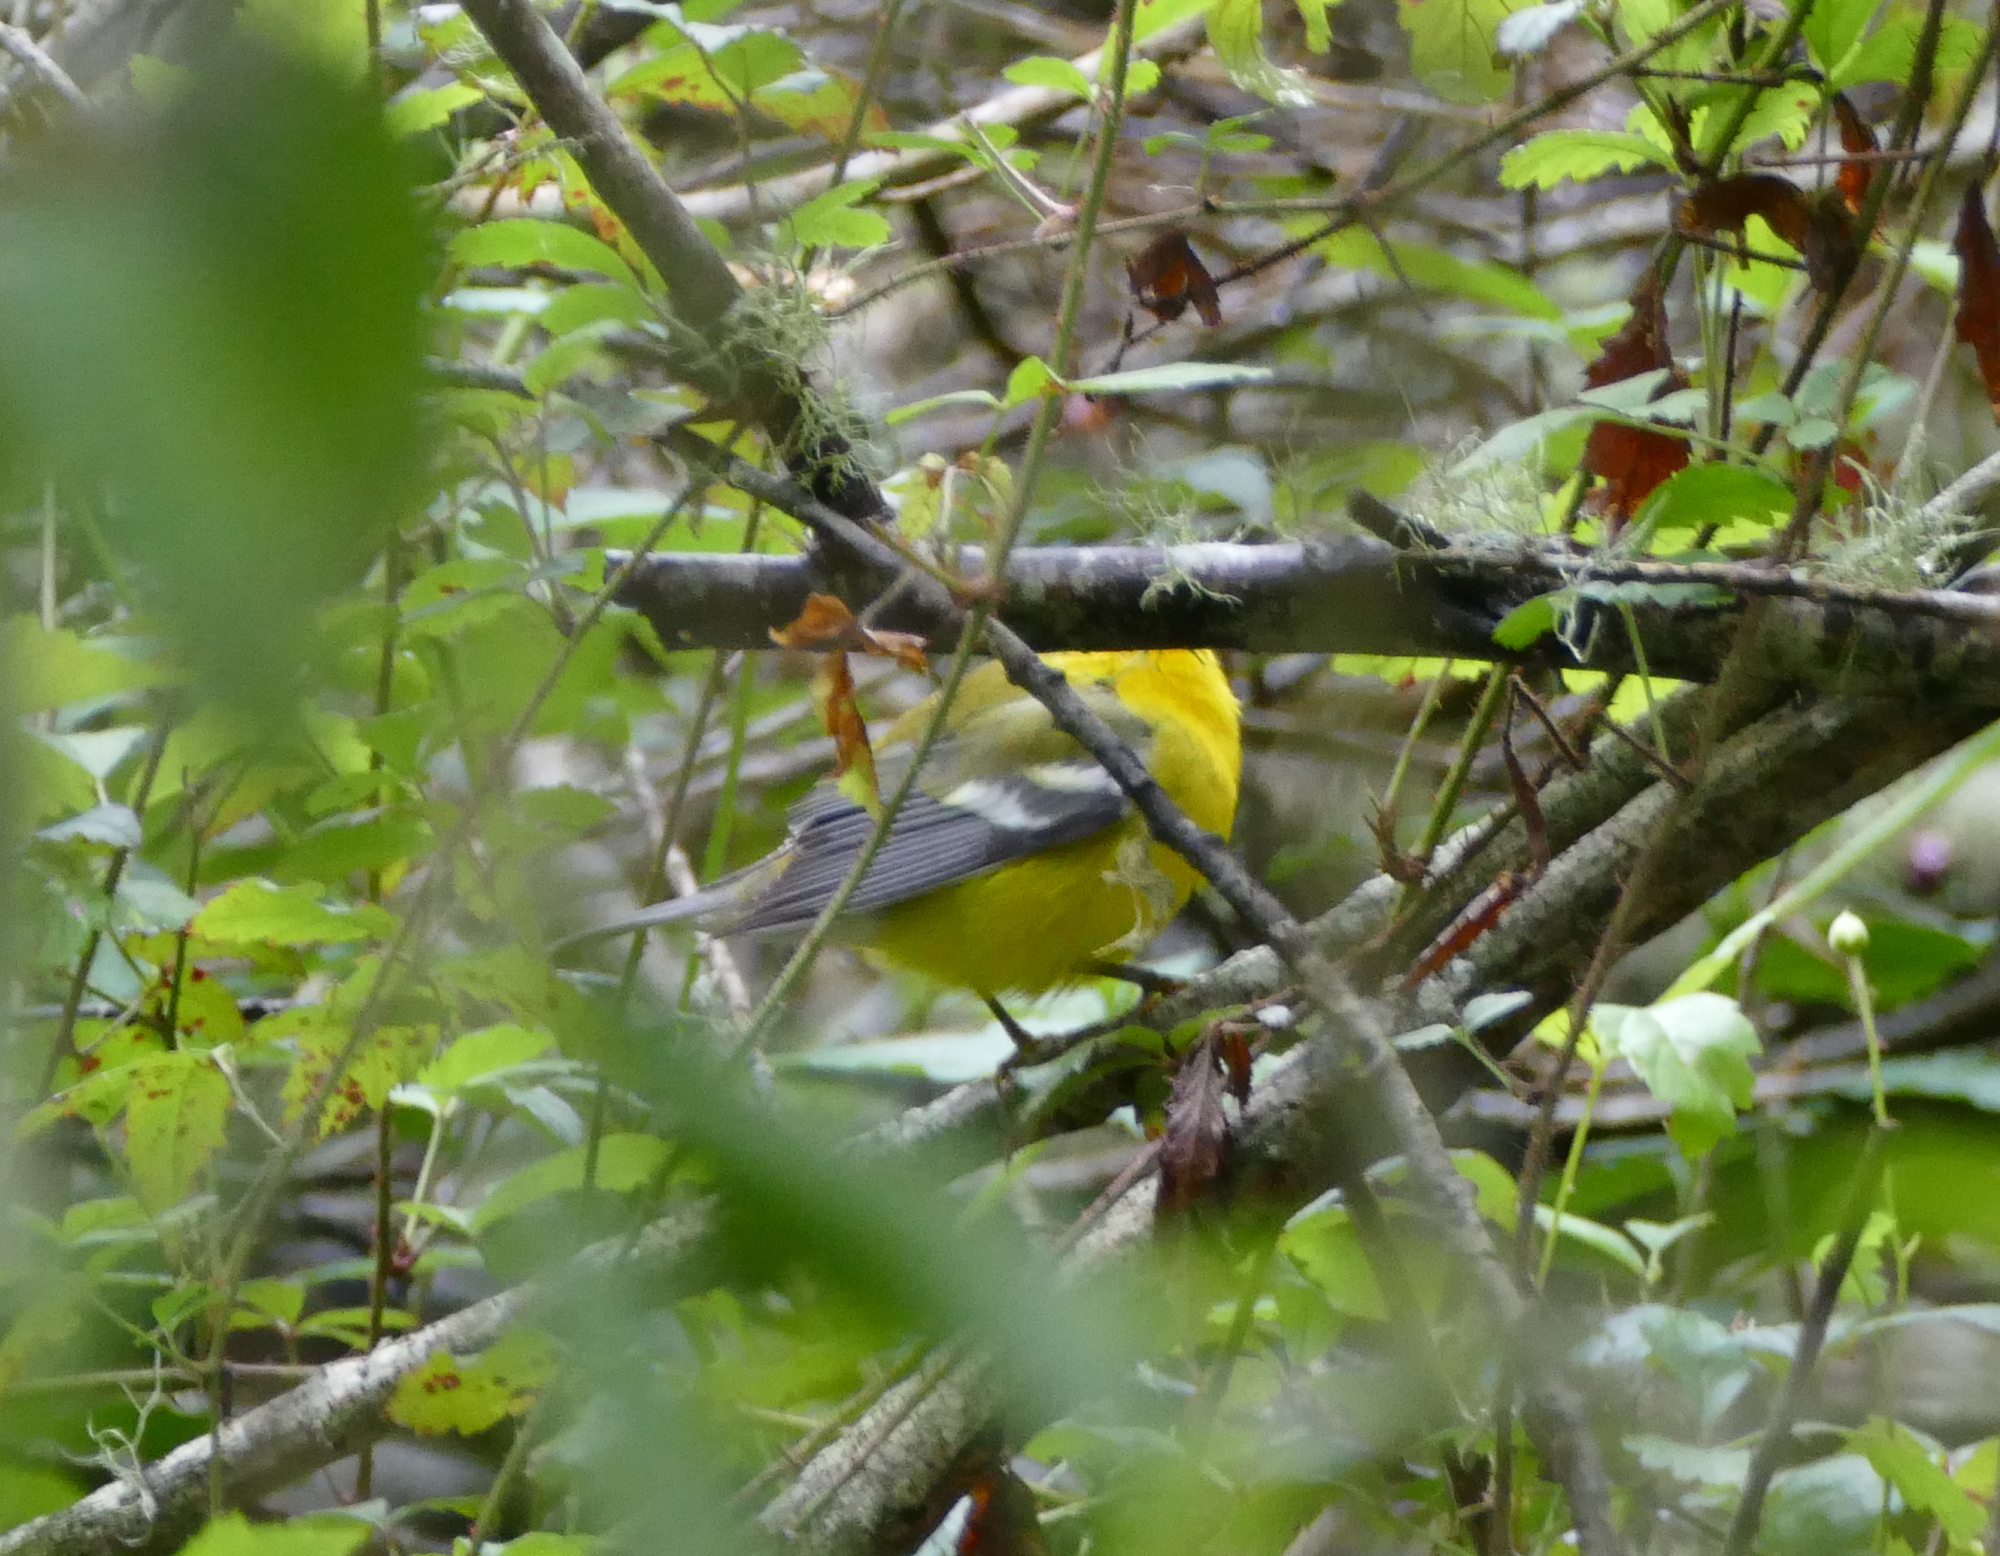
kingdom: Animalia
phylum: Chordata
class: Aves
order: Passeriformes
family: Parulidae
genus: Vermivora
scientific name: Vermivora cyanoptera
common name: Blue-winged warbler
